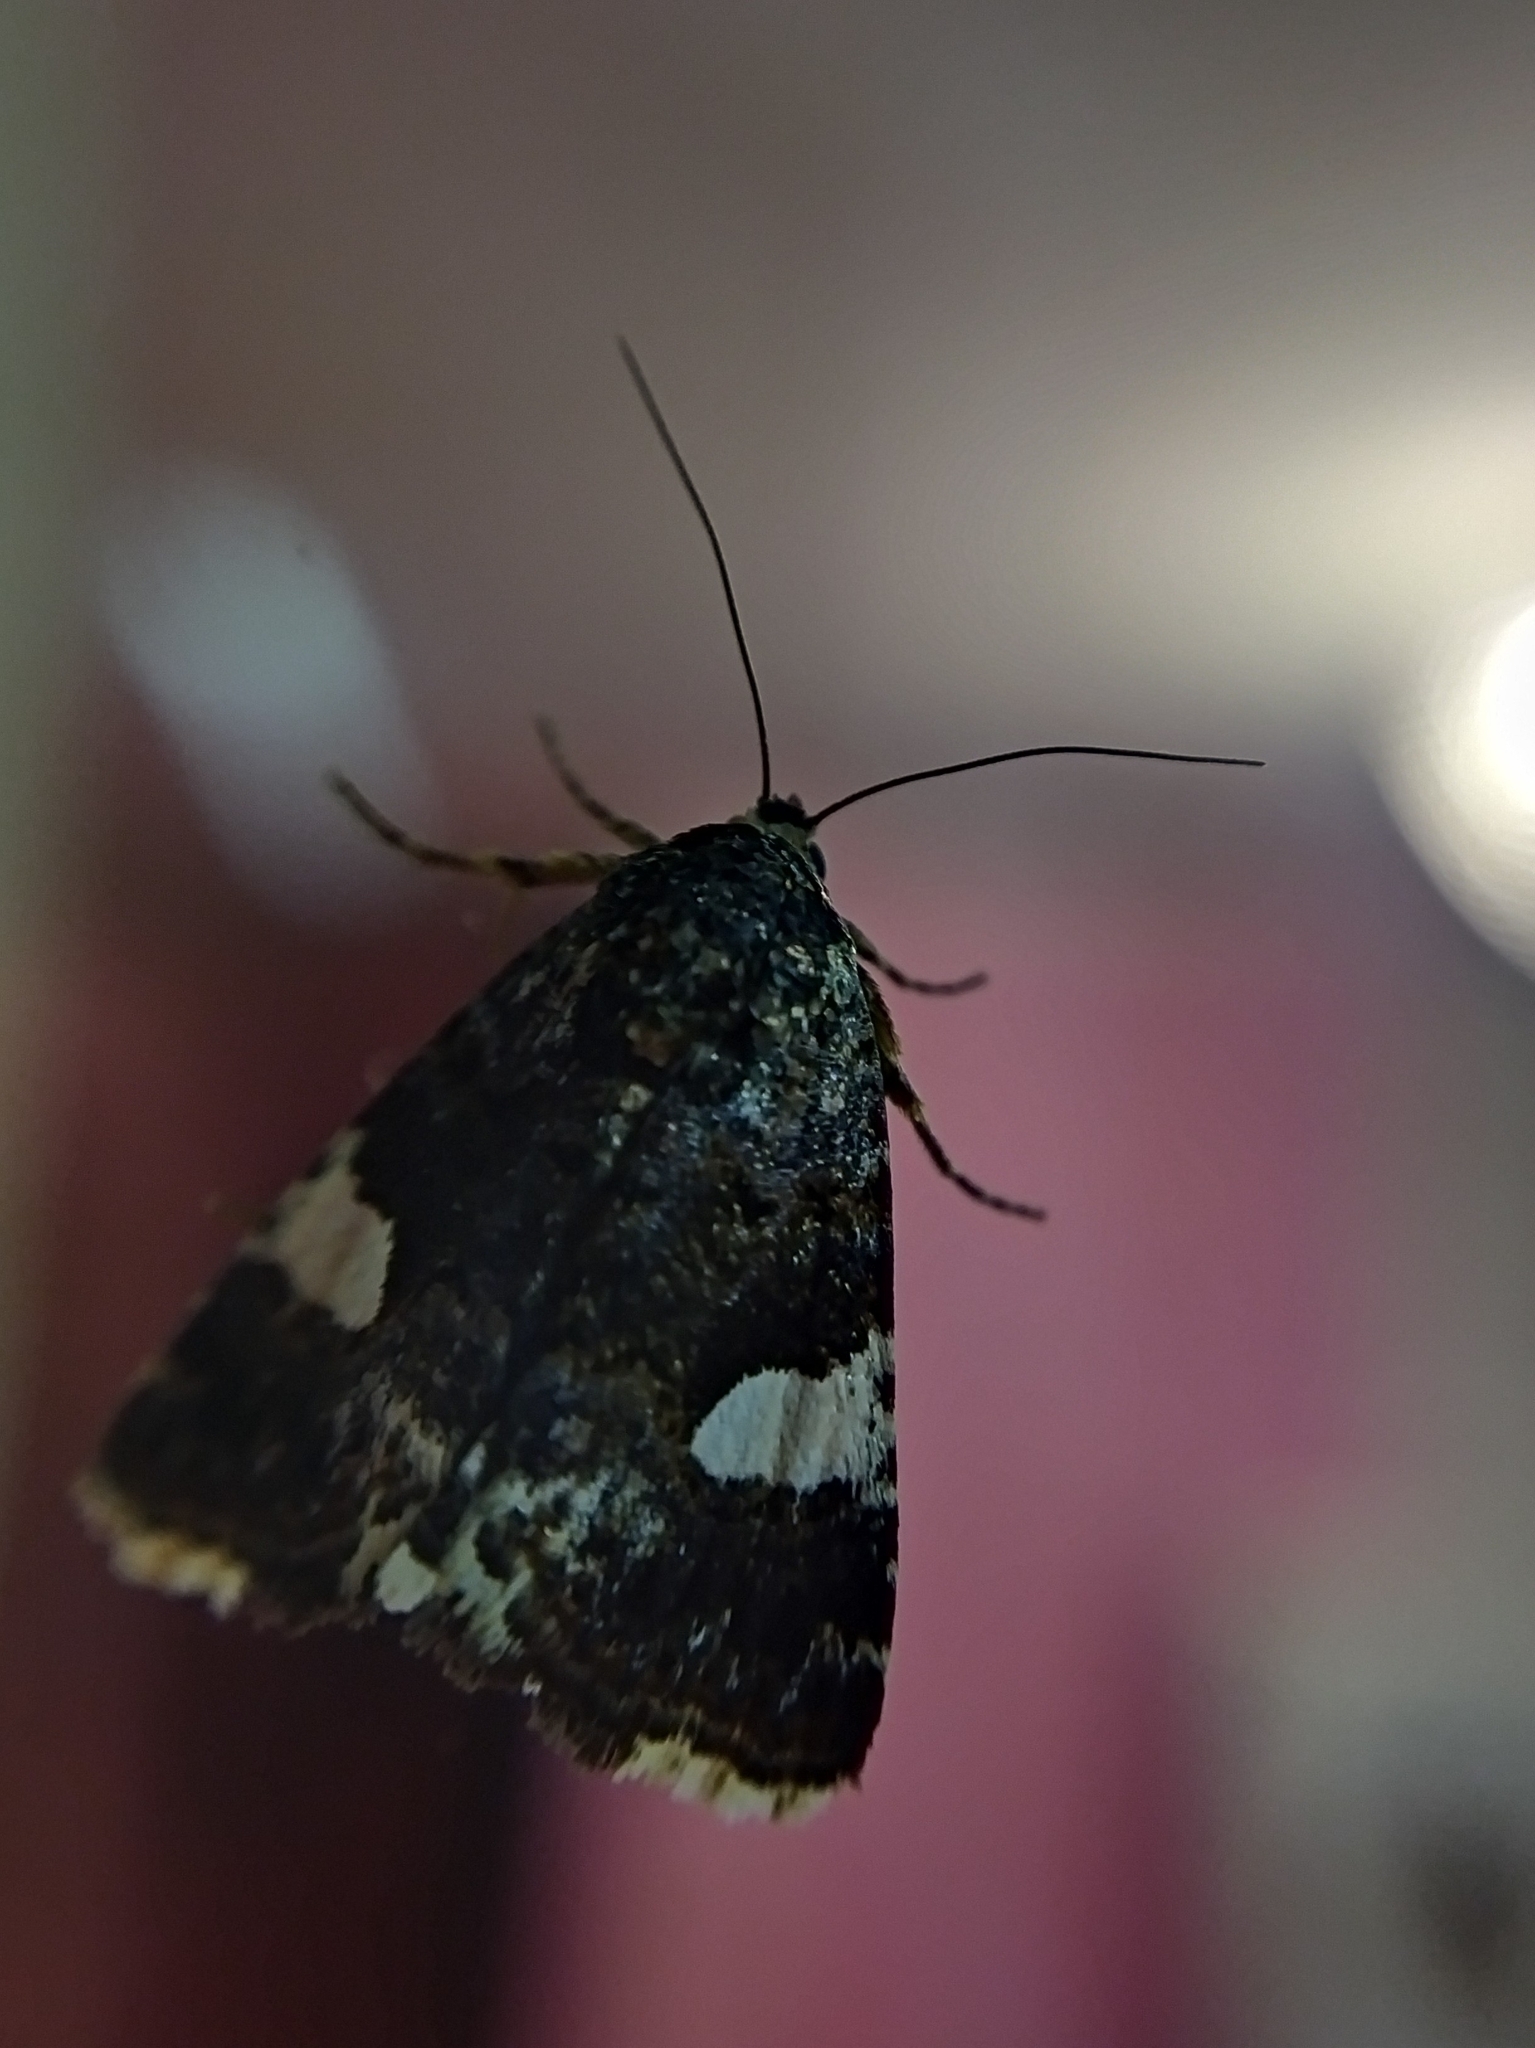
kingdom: Animalia
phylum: Arthropoda
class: Insecta
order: Lepidoptera
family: Erebidae
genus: Tyta
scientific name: Tyta luctuosa
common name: Four-spotted
